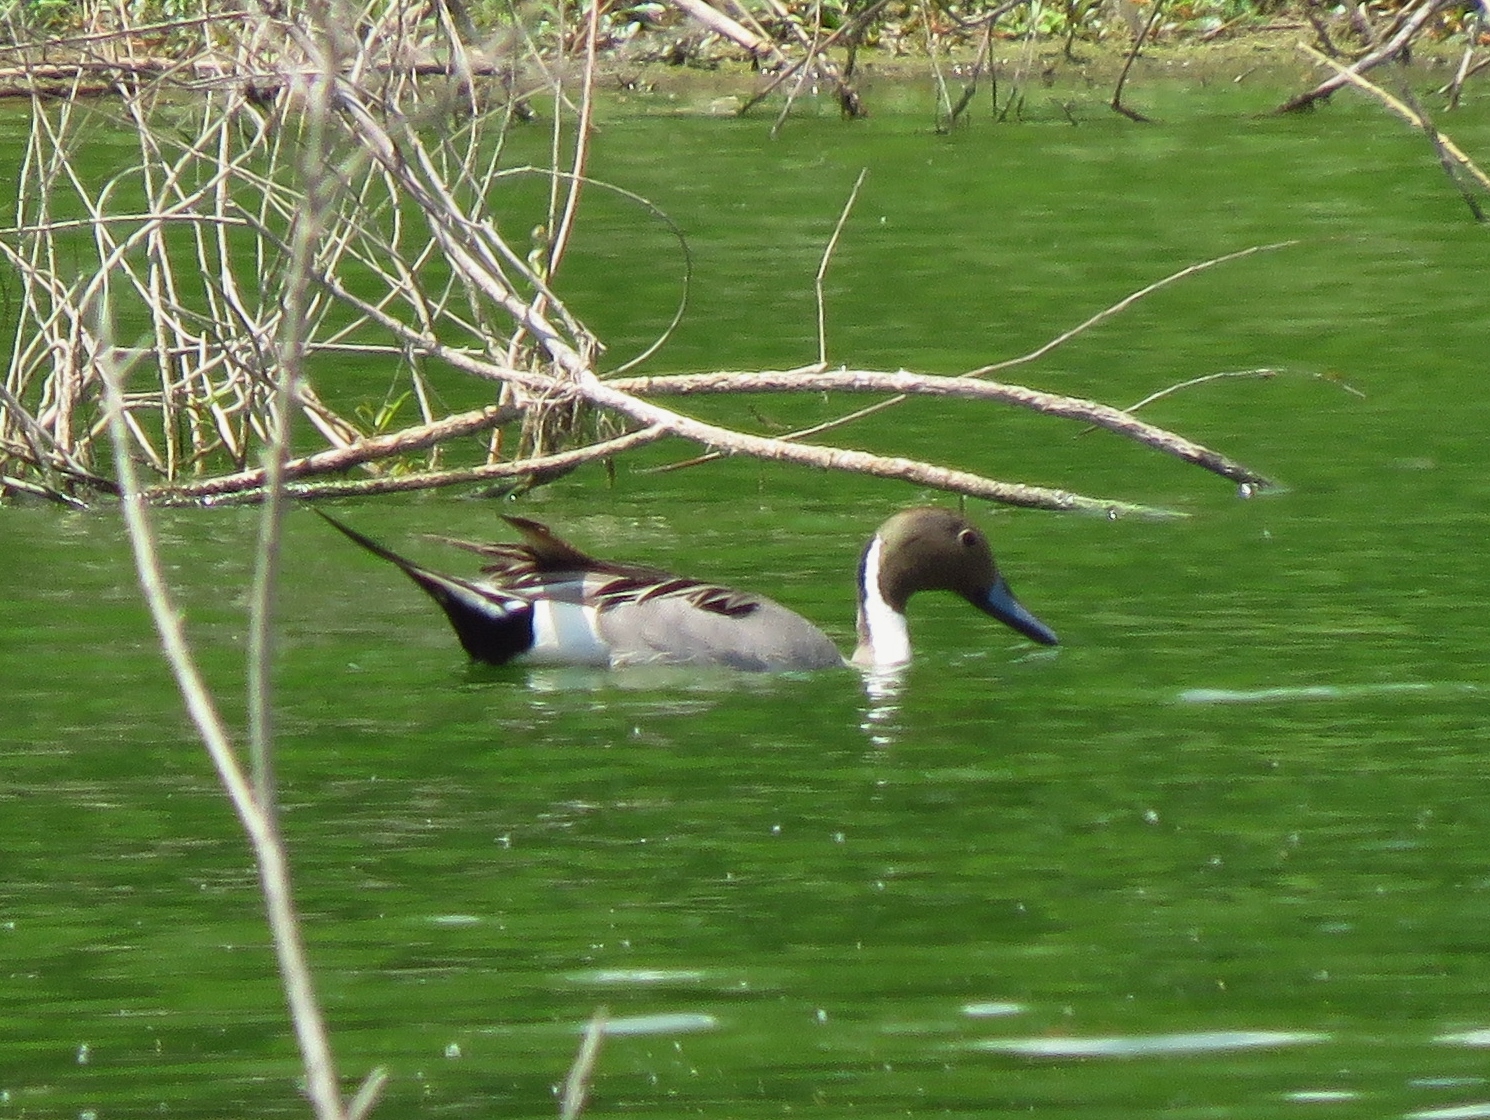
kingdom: Animalia
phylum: Chordata
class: Aves
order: Anseriformes
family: Anatidae
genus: Anas
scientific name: Anas acuta
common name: Northern pintail
